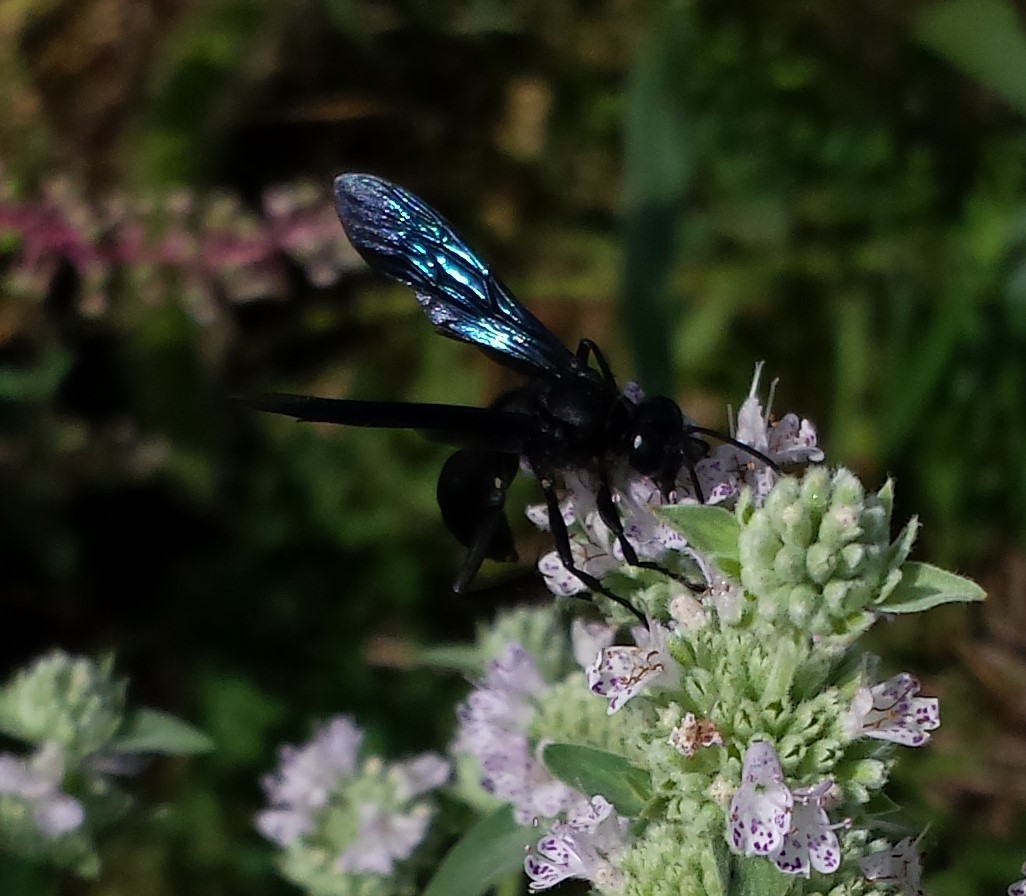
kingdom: Animalia
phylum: Arthropoda
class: Insecta
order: Hymenoptera
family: Sphecidae
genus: Sphex
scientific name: Sphex pensylvanicus
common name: Great black digger wasp
